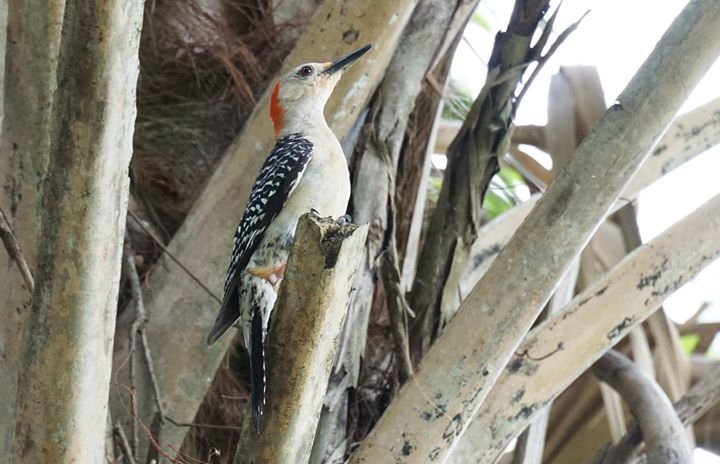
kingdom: Animalia
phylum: Chordata
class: Aves
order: Piciformes
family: Picidae
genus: Melanerpes
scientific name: Melanerpes carolinus
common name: Red-bellied woodpecker
